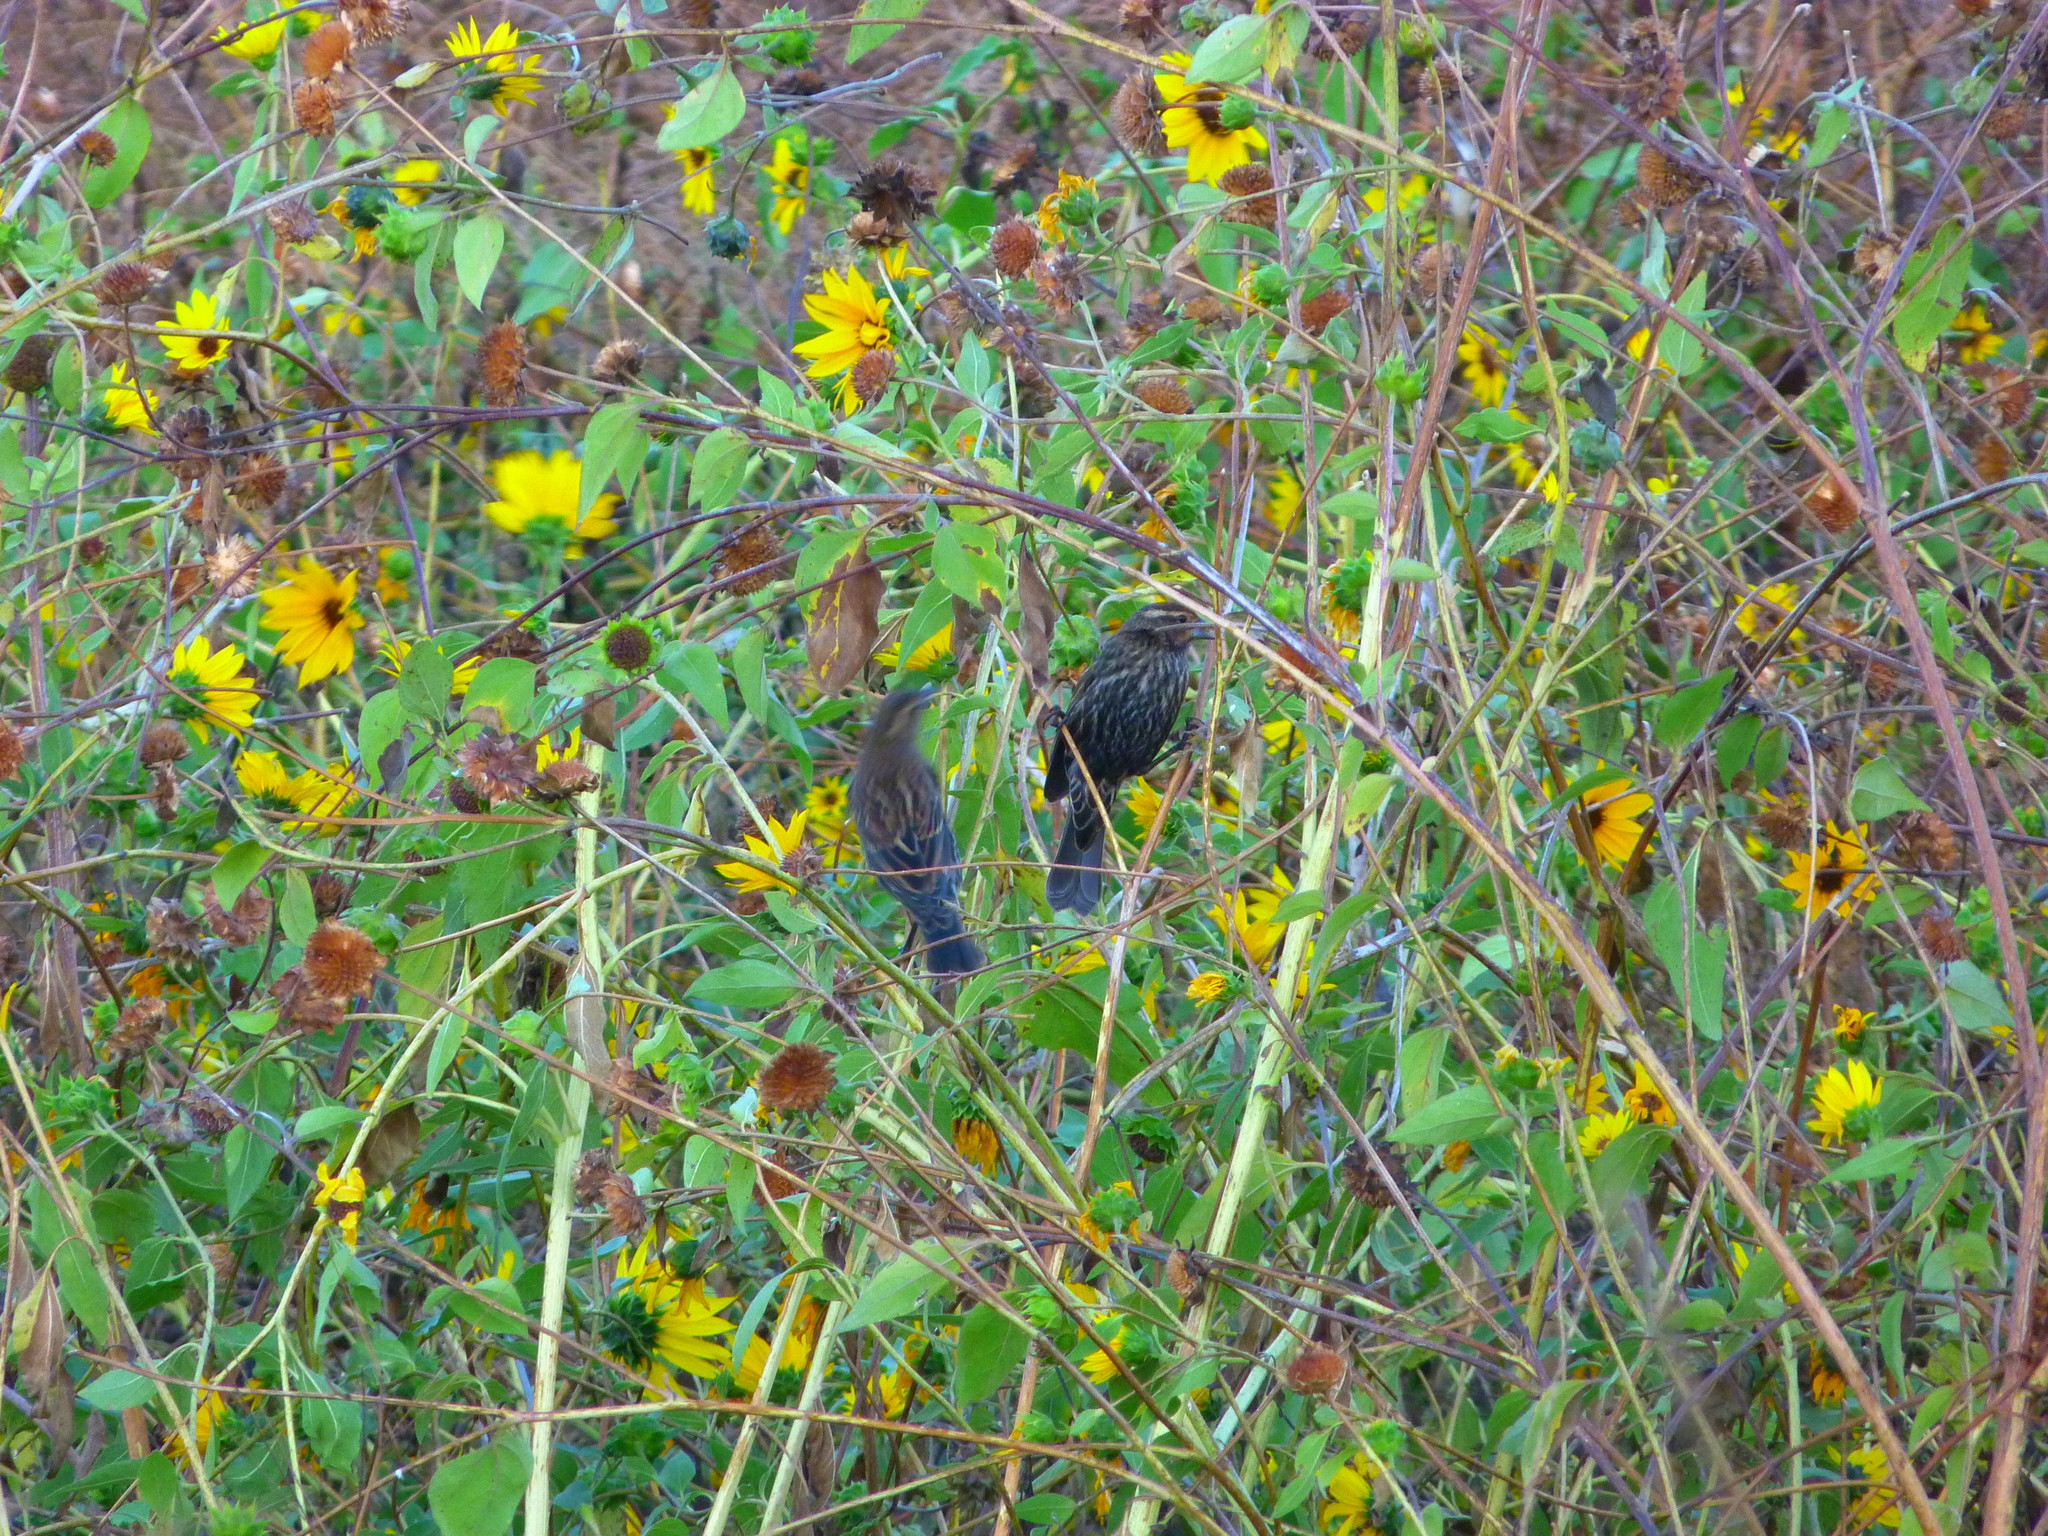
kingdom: Animalia
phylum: Chordata
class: Aves
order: Passeriformes
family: Icteridae
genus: Agelaius
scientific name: Agelaius phoeniceus
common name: Red-winged blackbird
